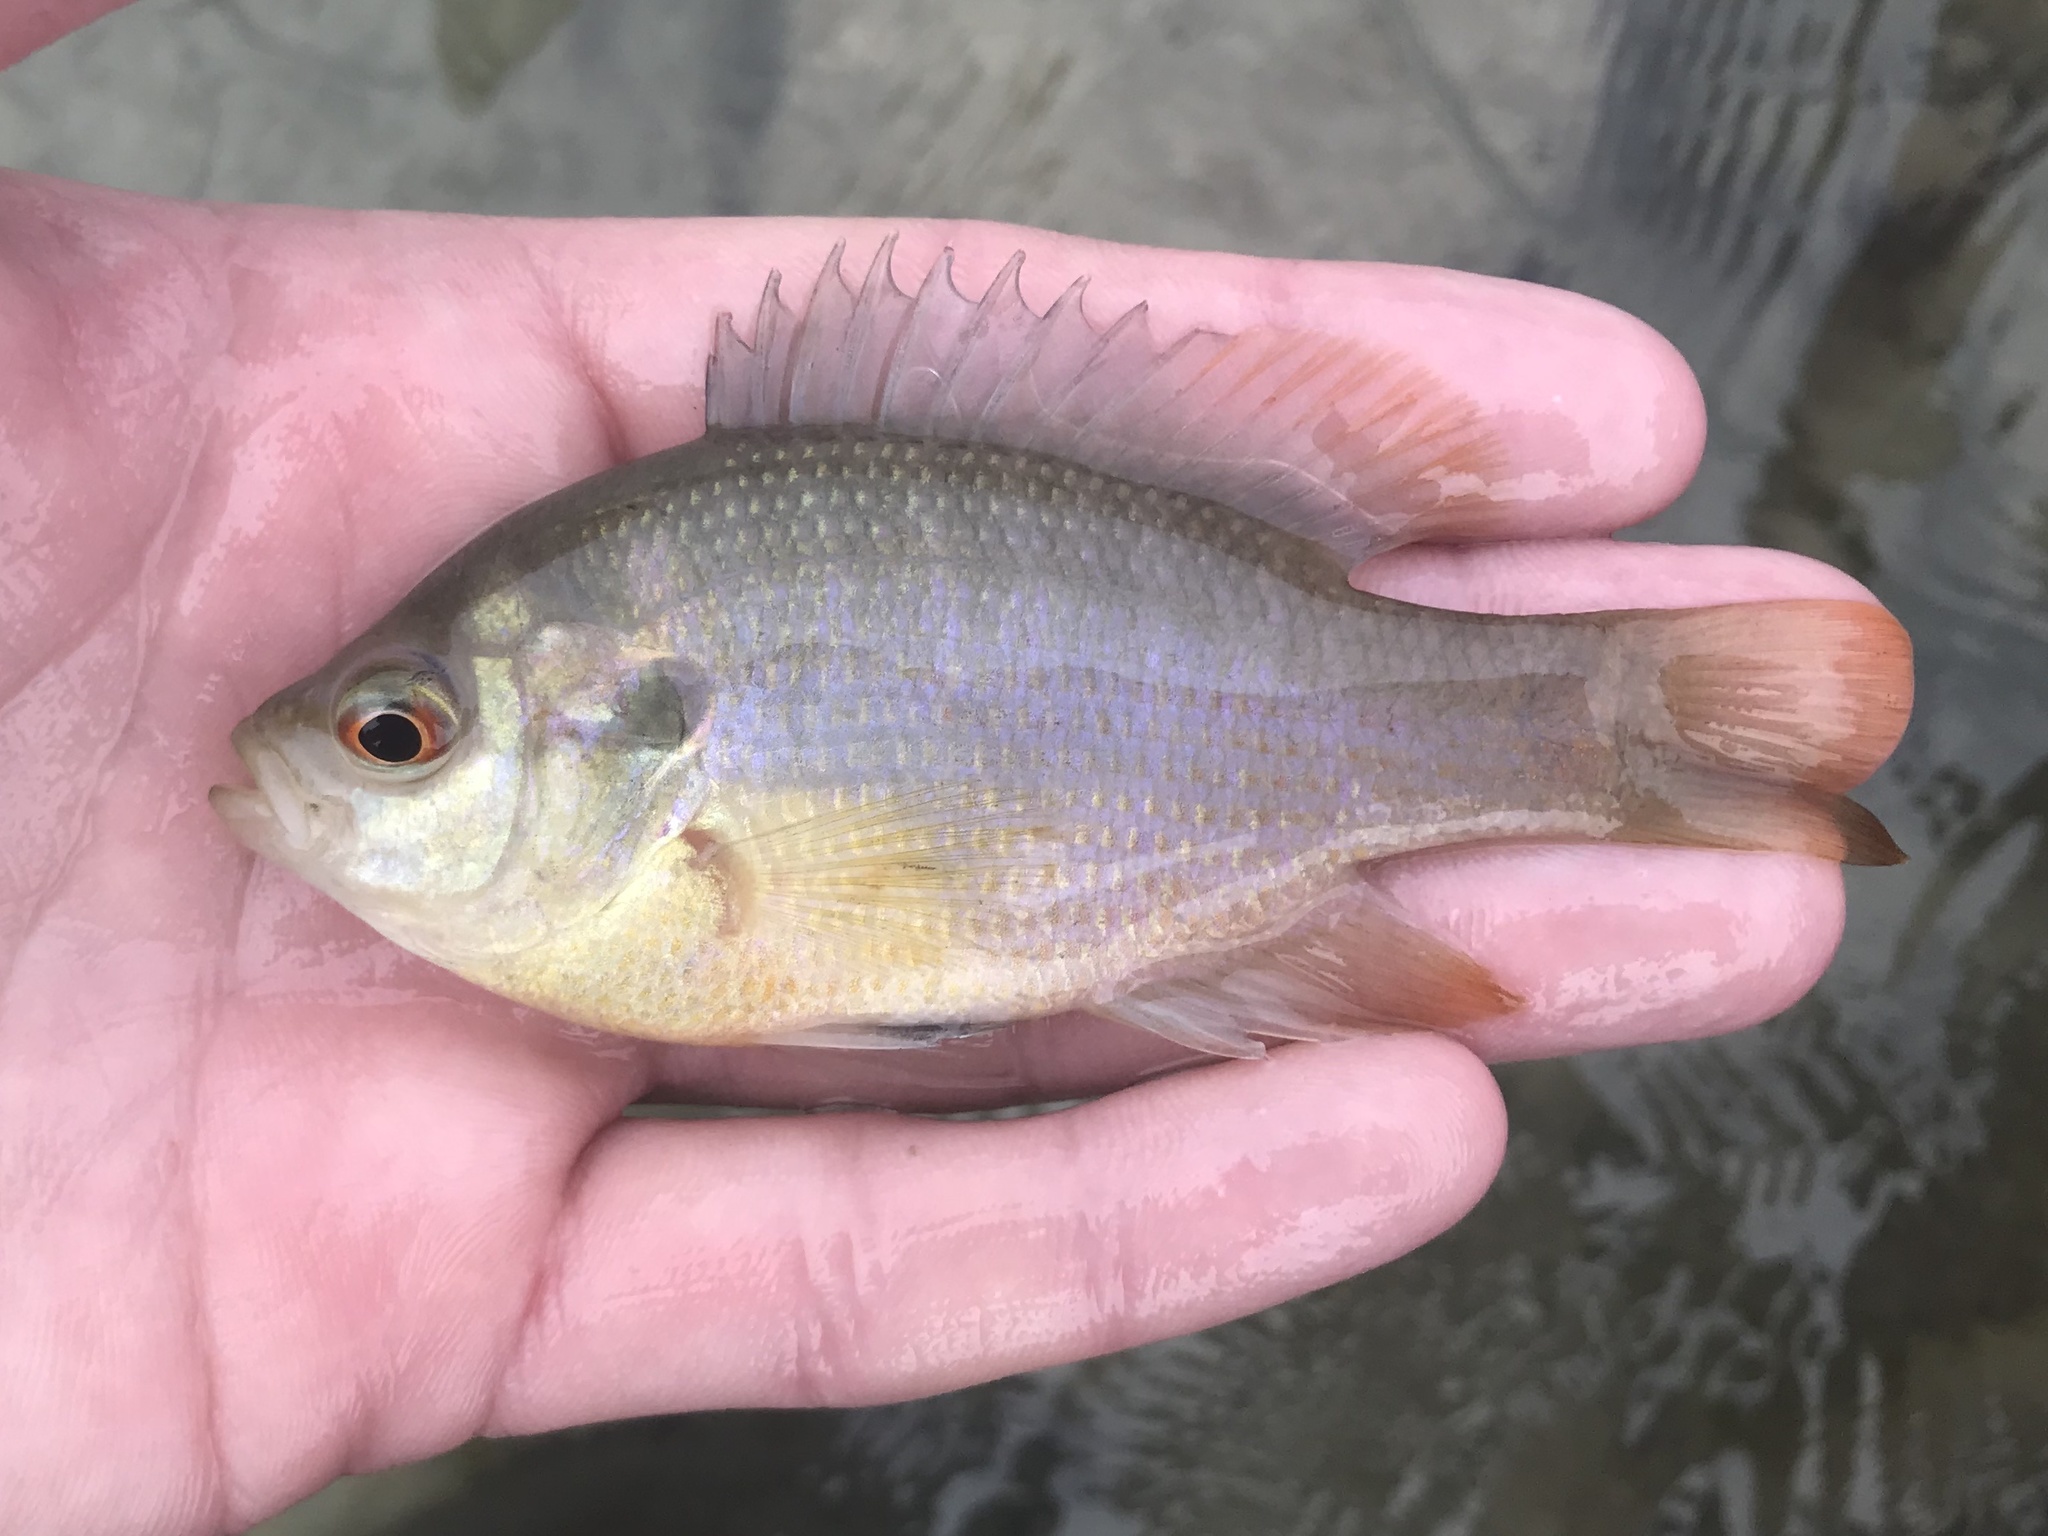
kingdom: Animalia
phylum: Chordata
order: Perciformes
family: Centrarchidae
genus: Lepomis
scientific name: Lepomis miniatus
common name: Redspotted sunfish
